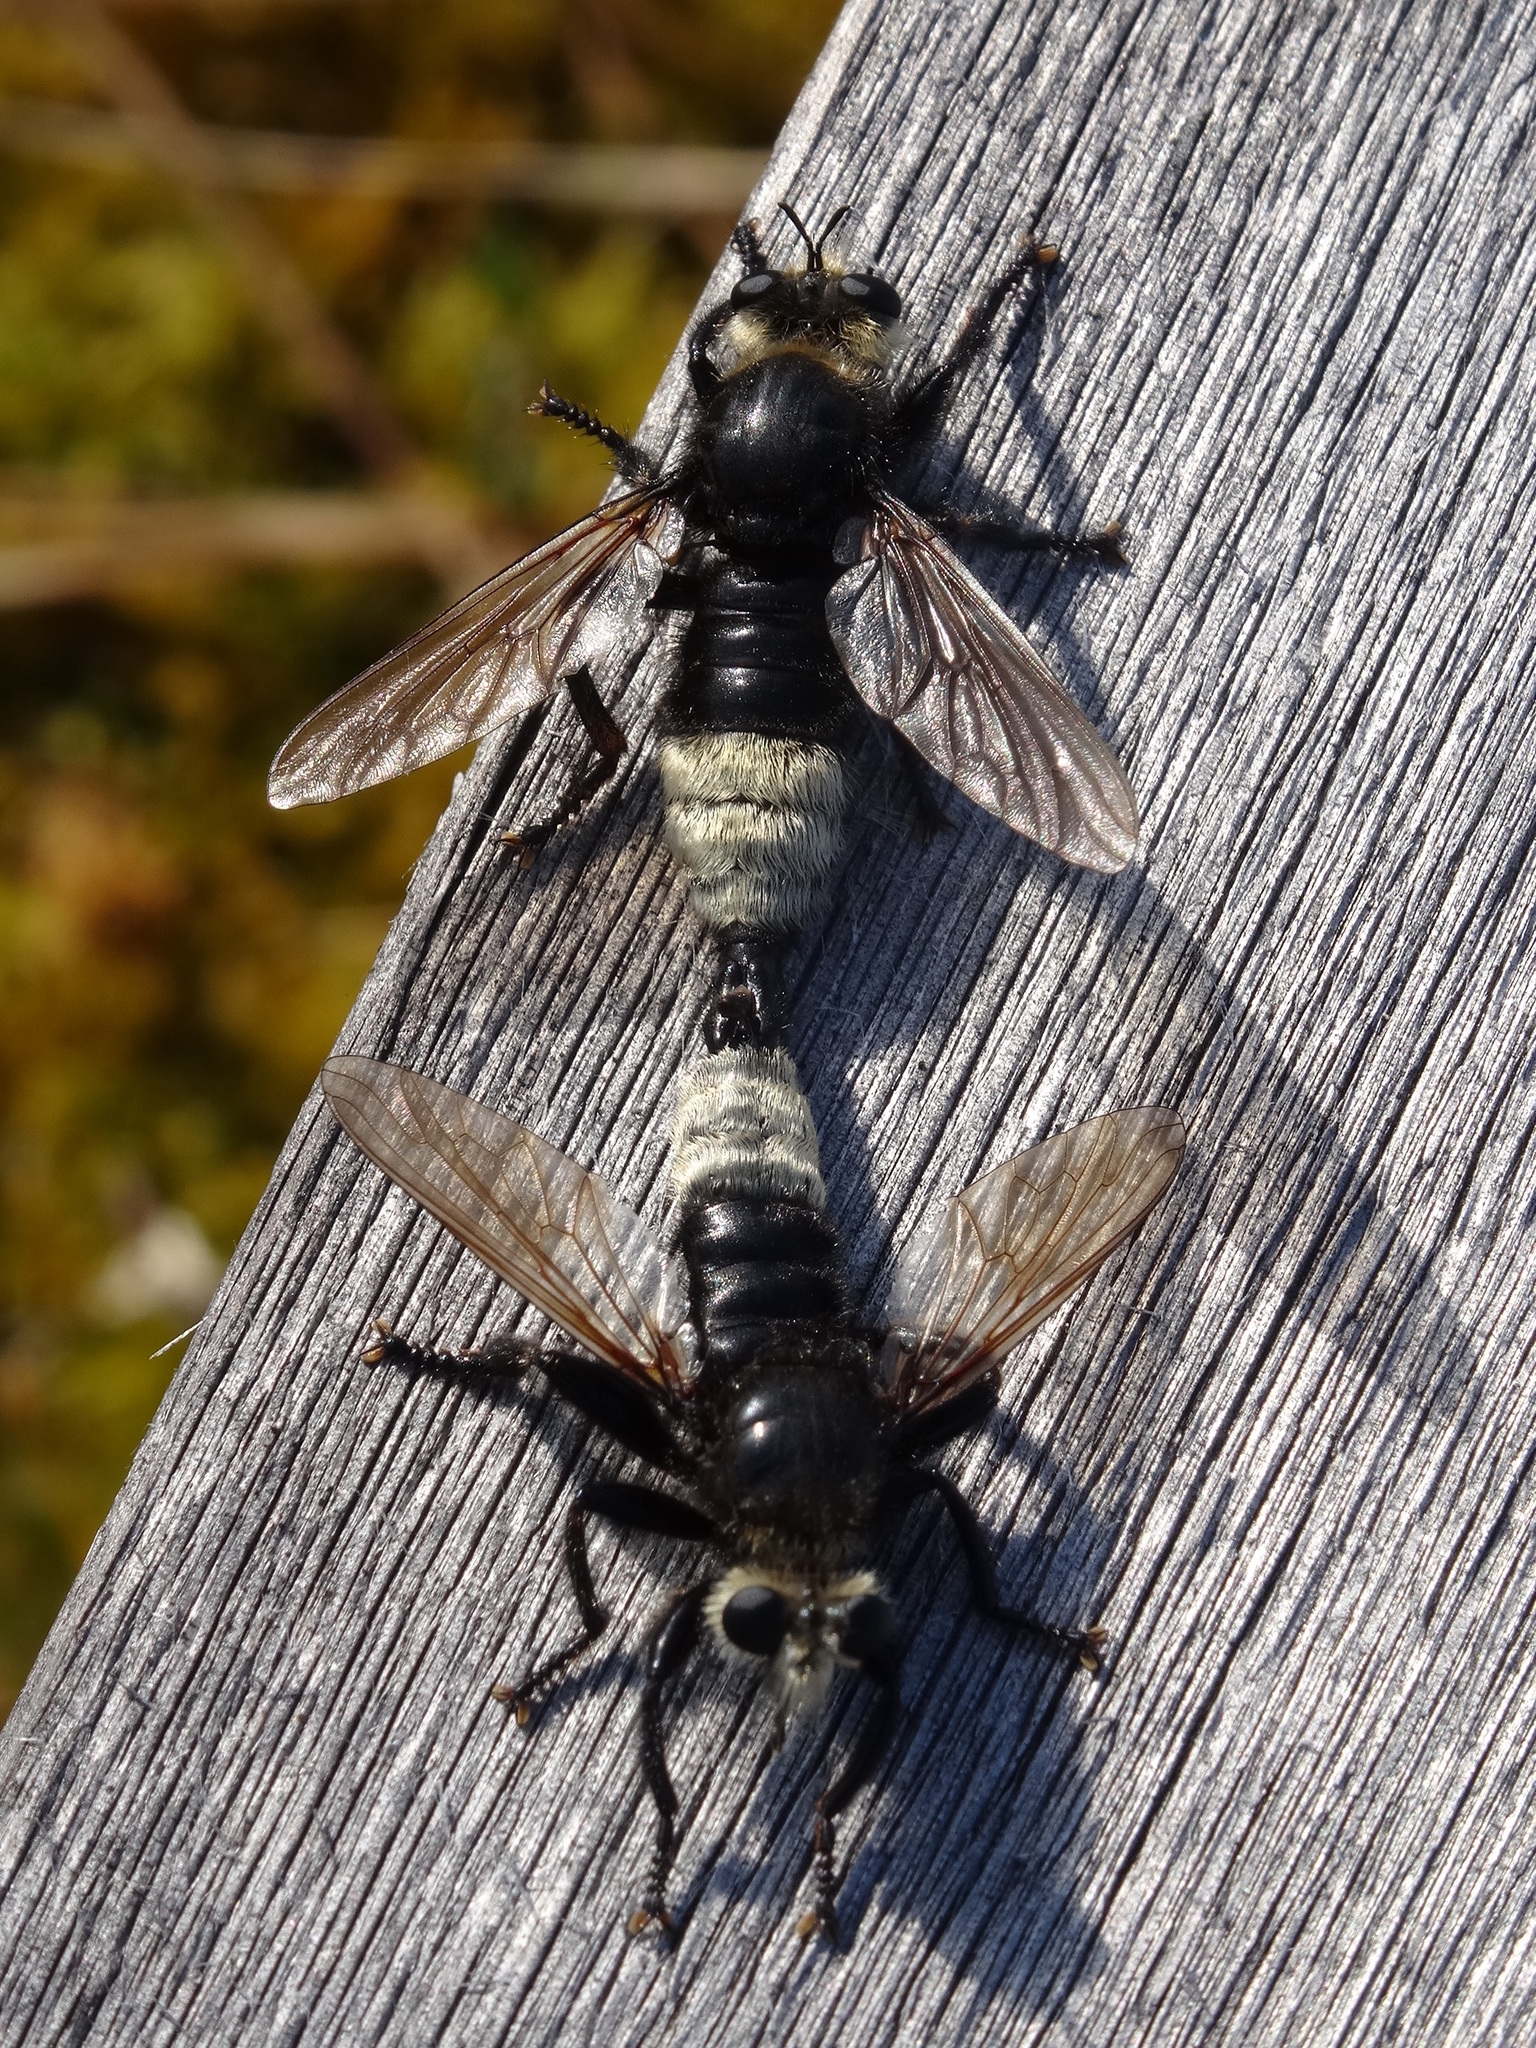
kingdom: Animalia
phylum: Arthropoda
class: Insecta
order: Diptera
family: Asilidae
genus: Laphria
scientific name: Laphria gibbosa
